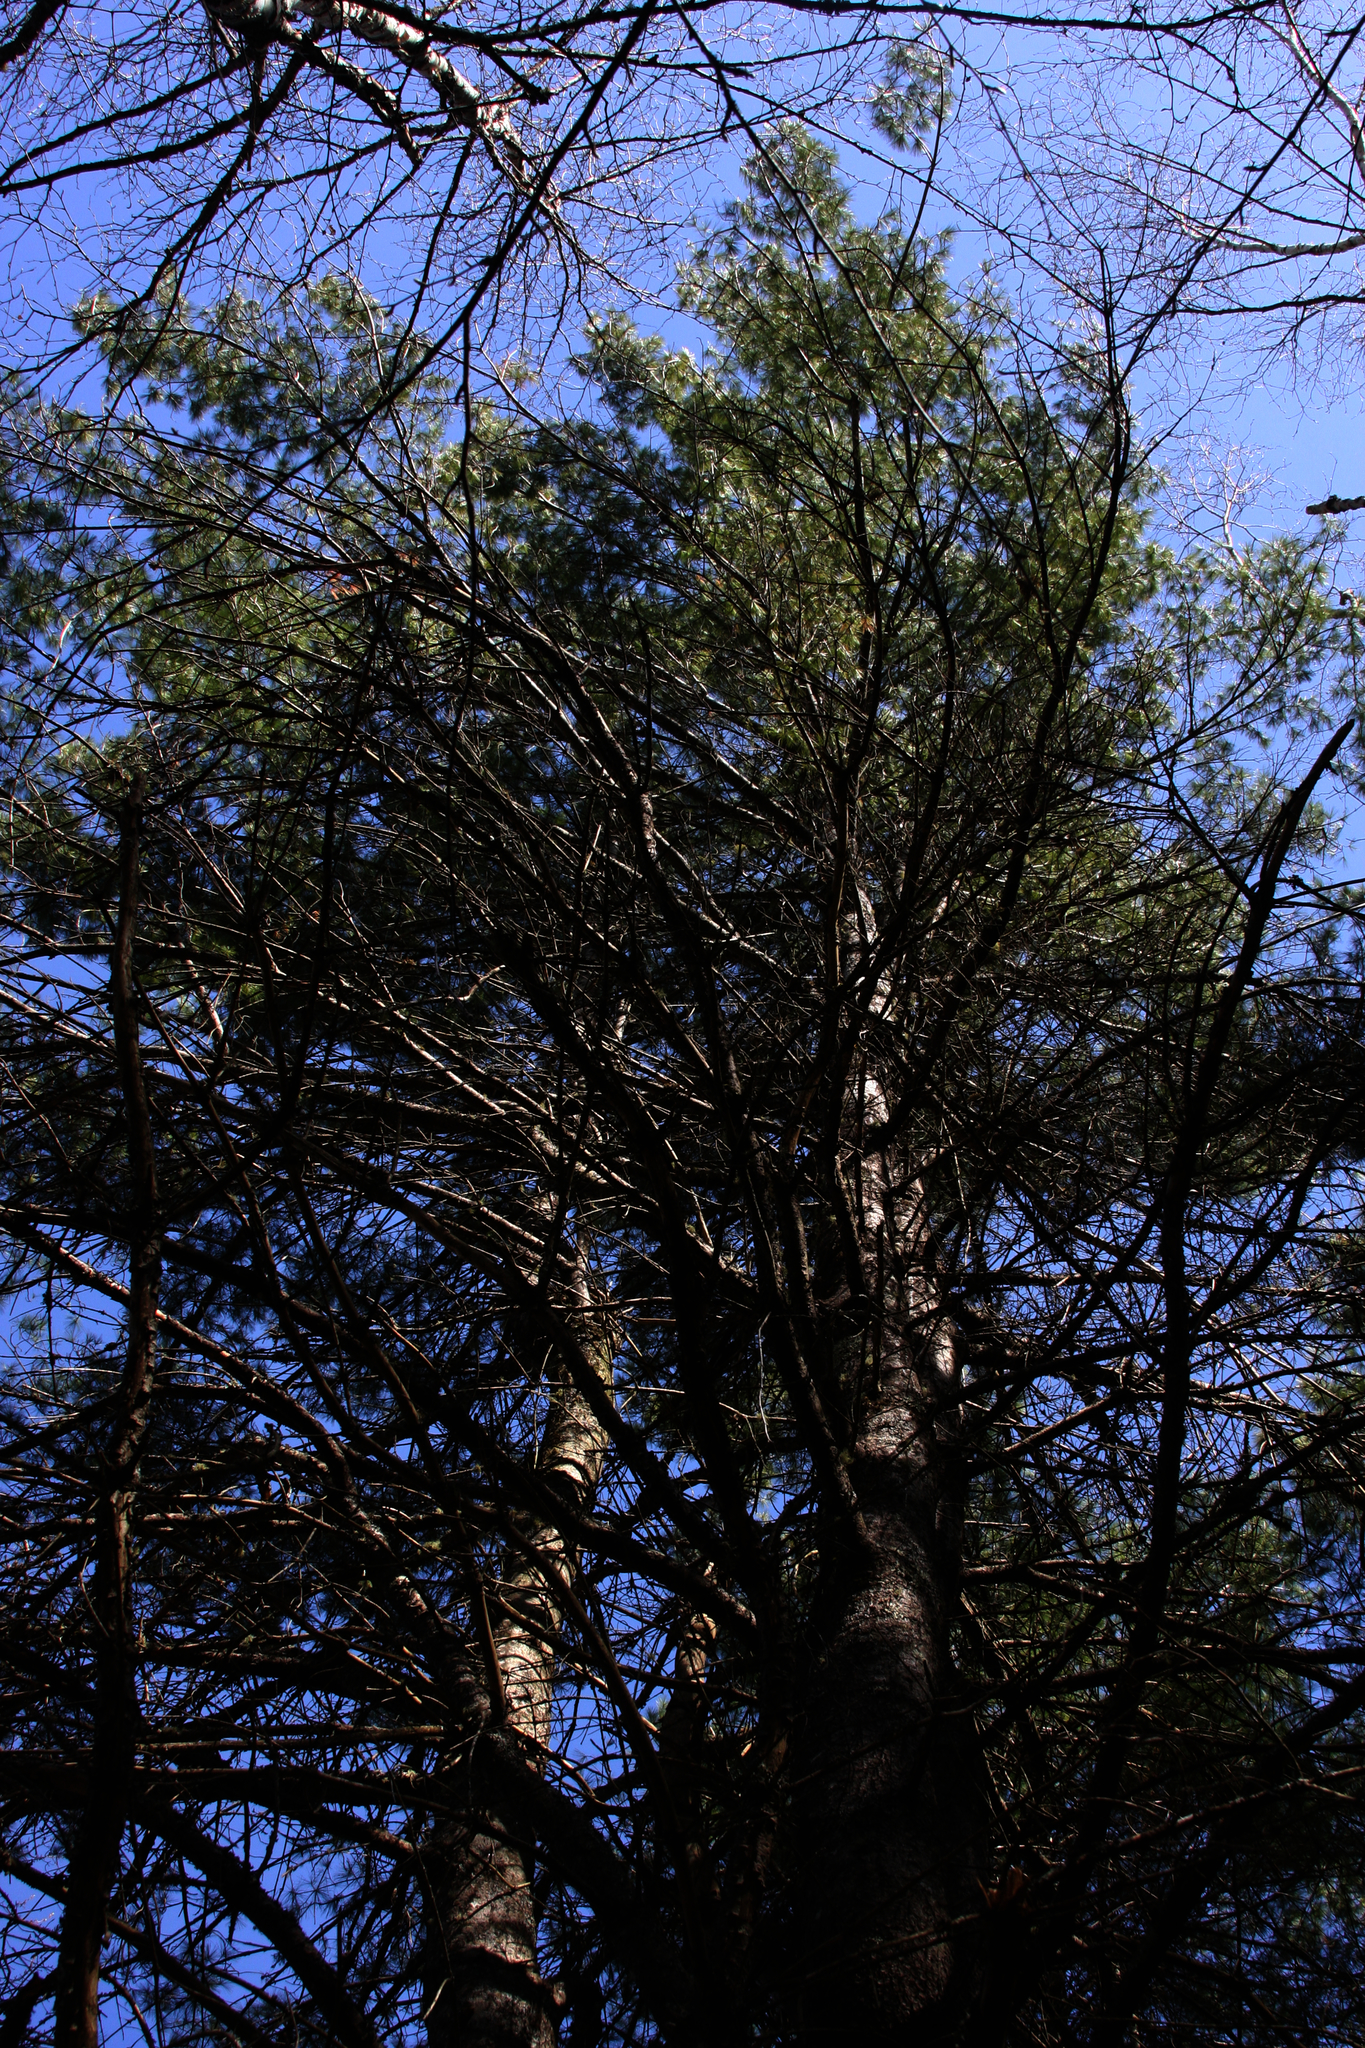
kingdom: Plantae
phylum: Tracheophyta
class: Pinopsida
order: Pinales
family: Pinaceae
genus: Pinus
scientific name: Pinus strobus
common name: Weymouth pine
